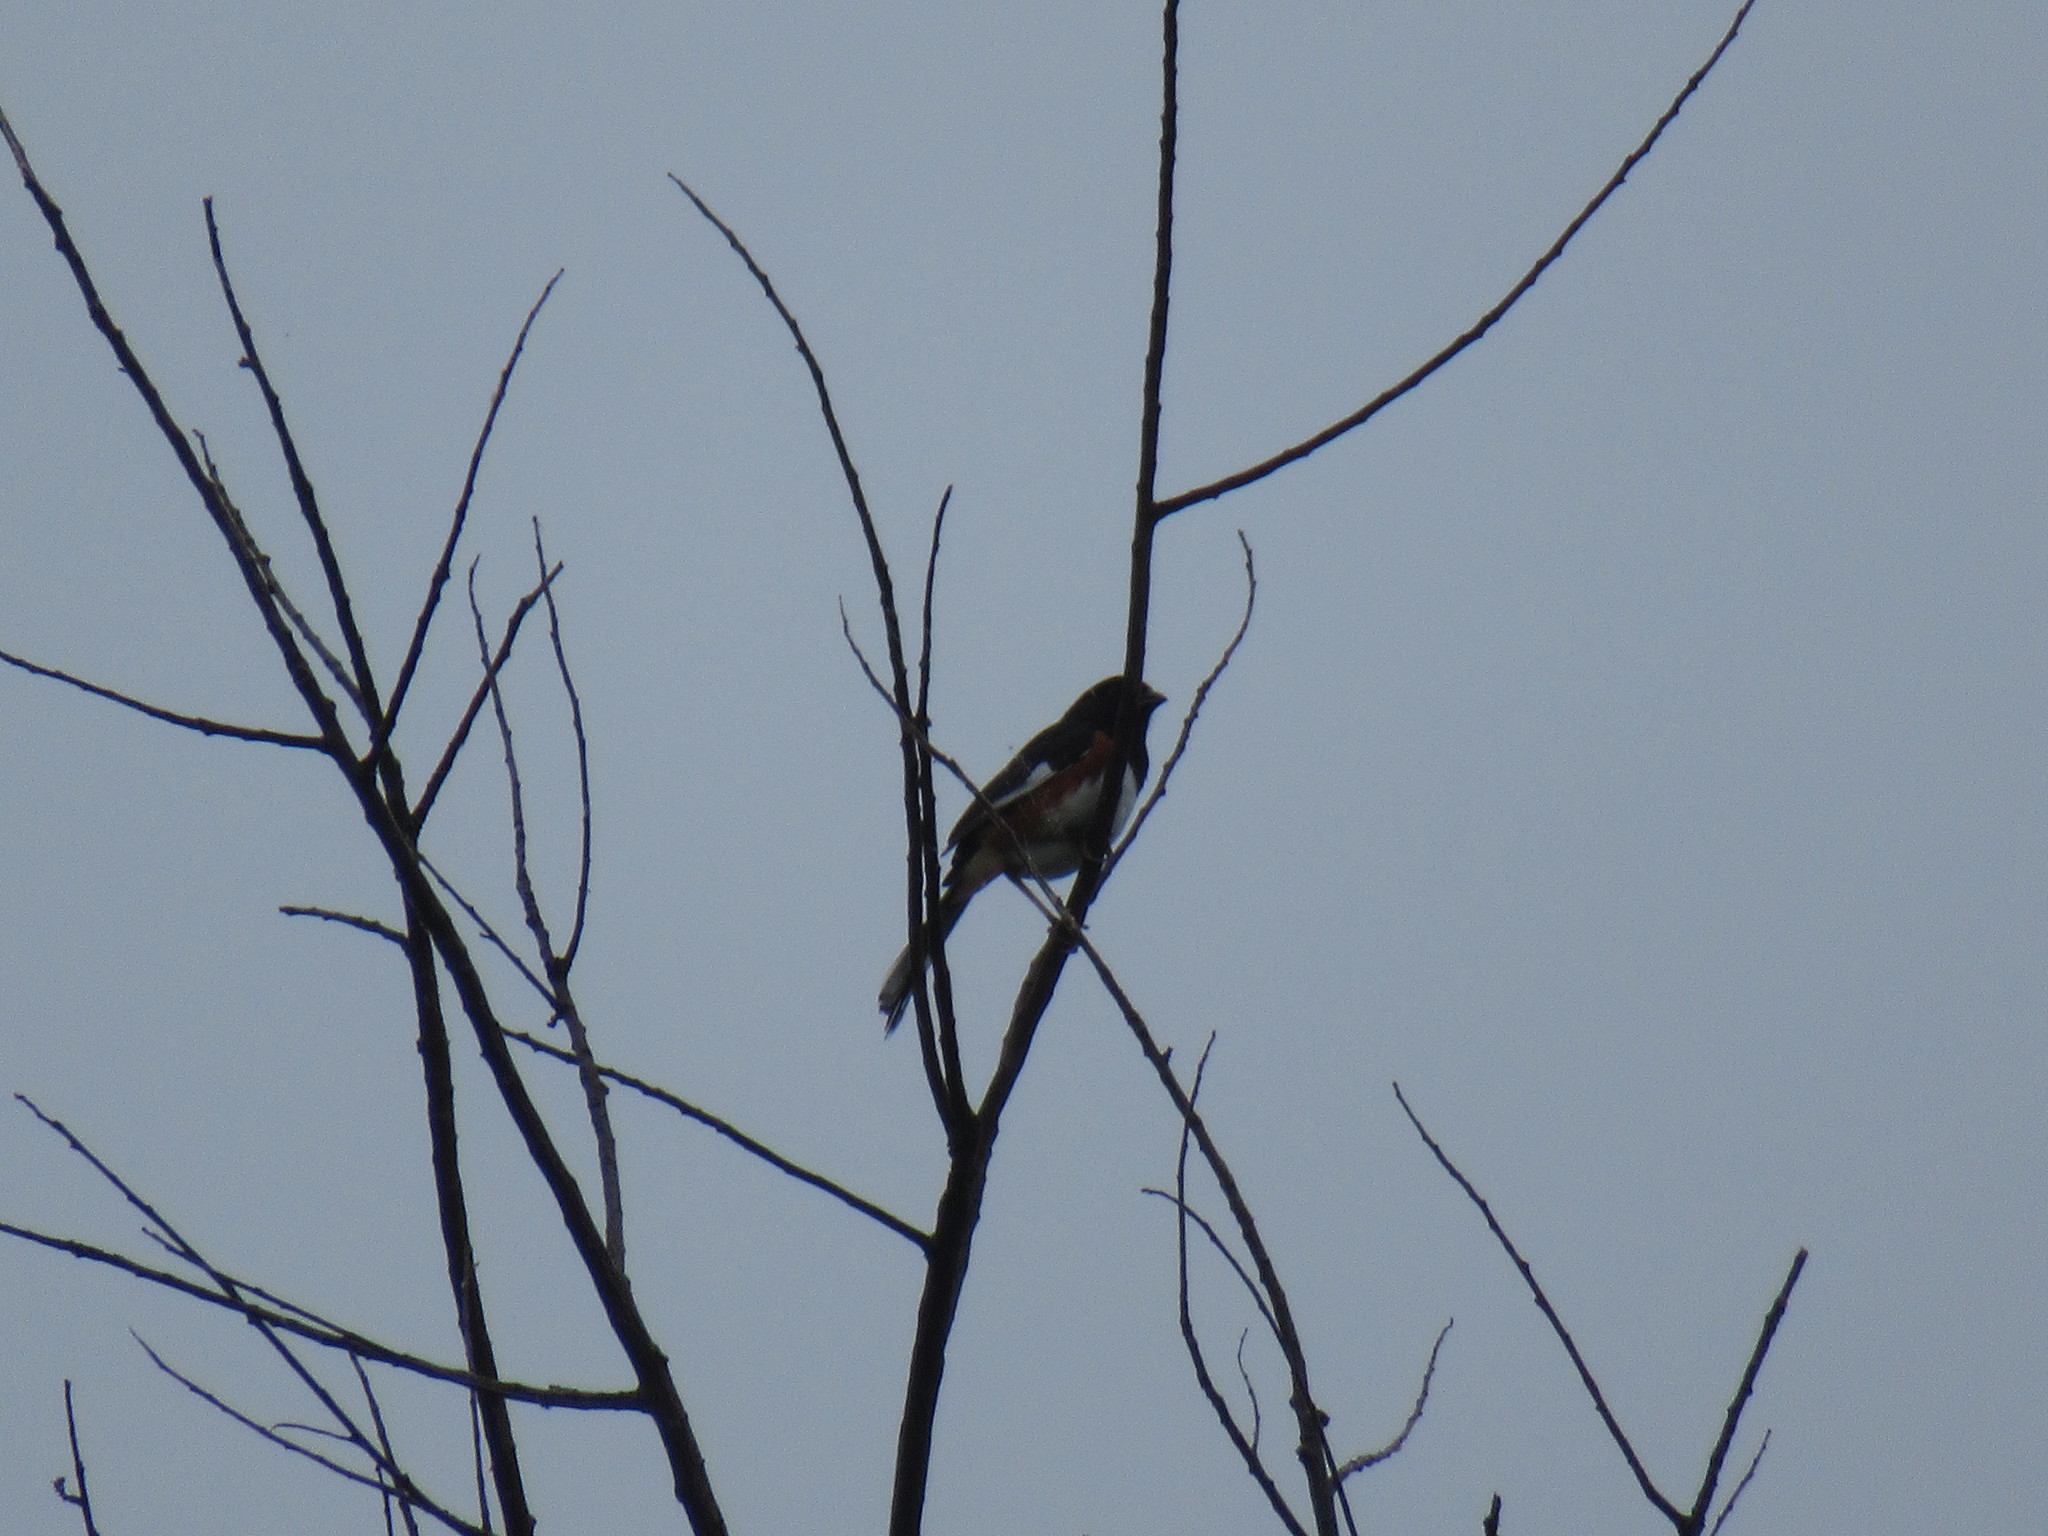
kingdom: Animalia
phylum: Chordata
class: Aves
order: Passeriformes
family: Passerellidae
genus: Pipilo
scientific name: Pipilo erythrophthalmus
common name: Eastern towhee
